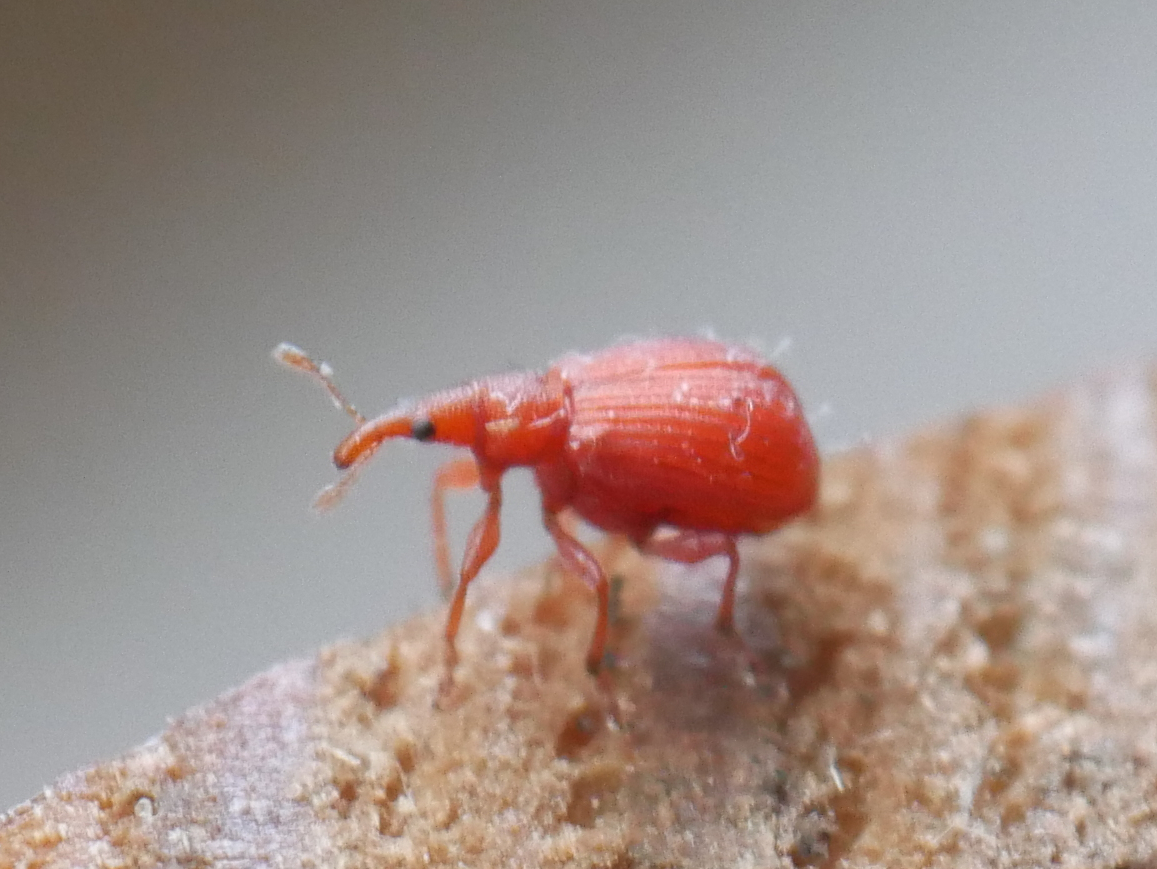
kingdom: Animalia
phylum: Arthropoda
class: Insecta
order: Coleoptera
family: Apionidae
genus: Apion
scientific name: Apion frumentarium
